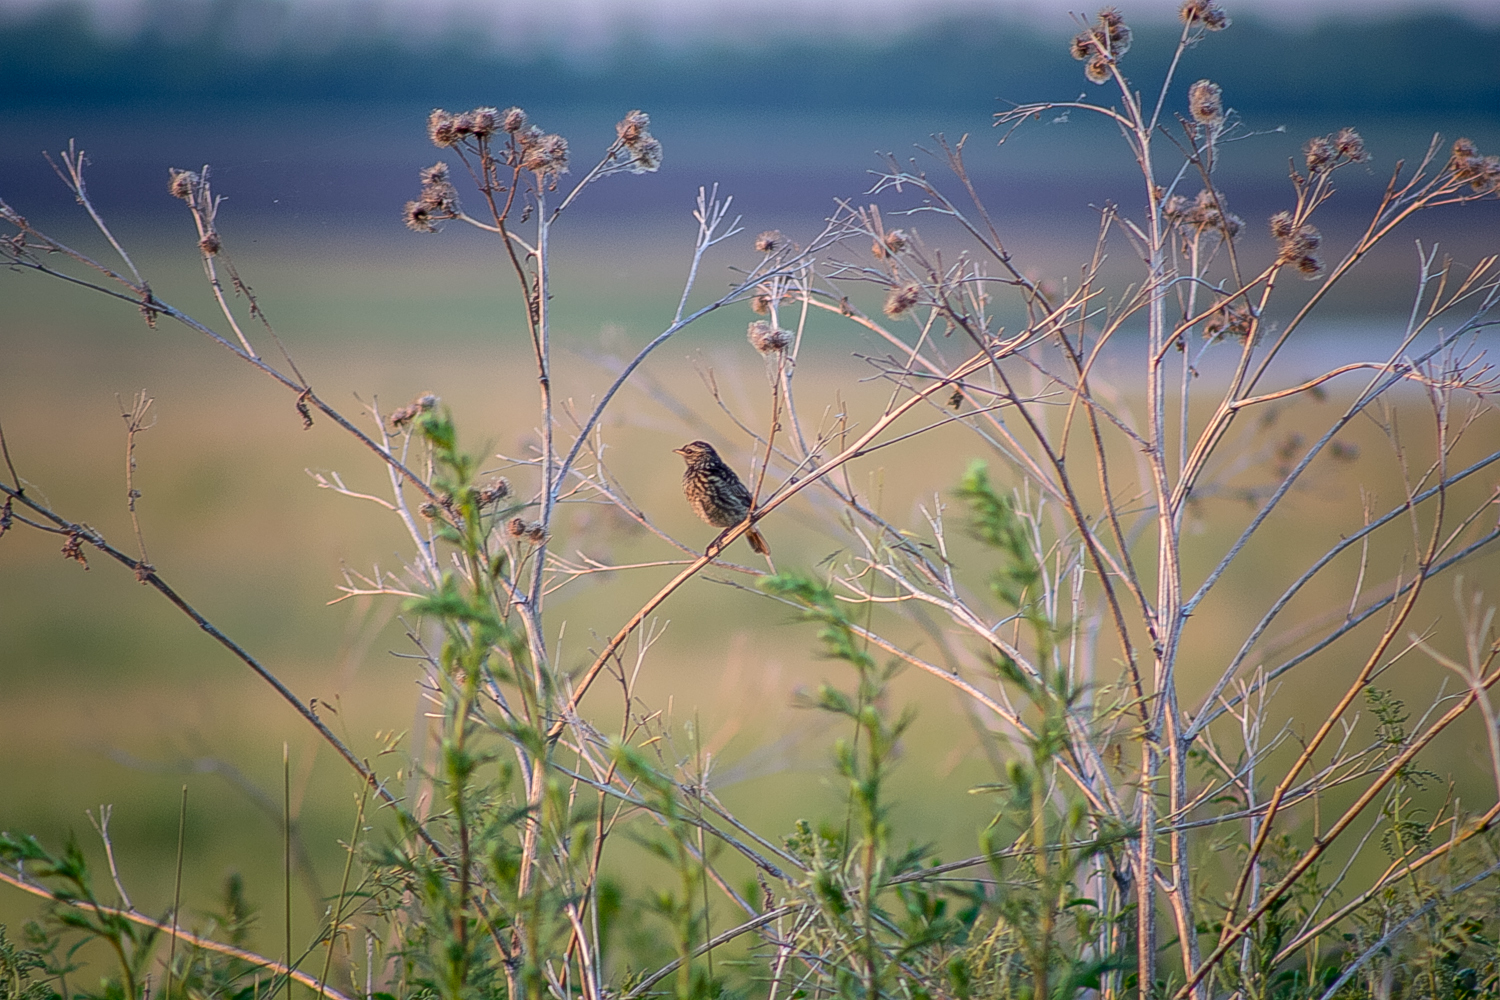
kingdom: Animalia
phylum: Chordata
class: Aves
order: Passeriformes
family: Muscicapidae
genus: Luscinia
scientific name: Luscinia svecica
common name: Bluethroat
